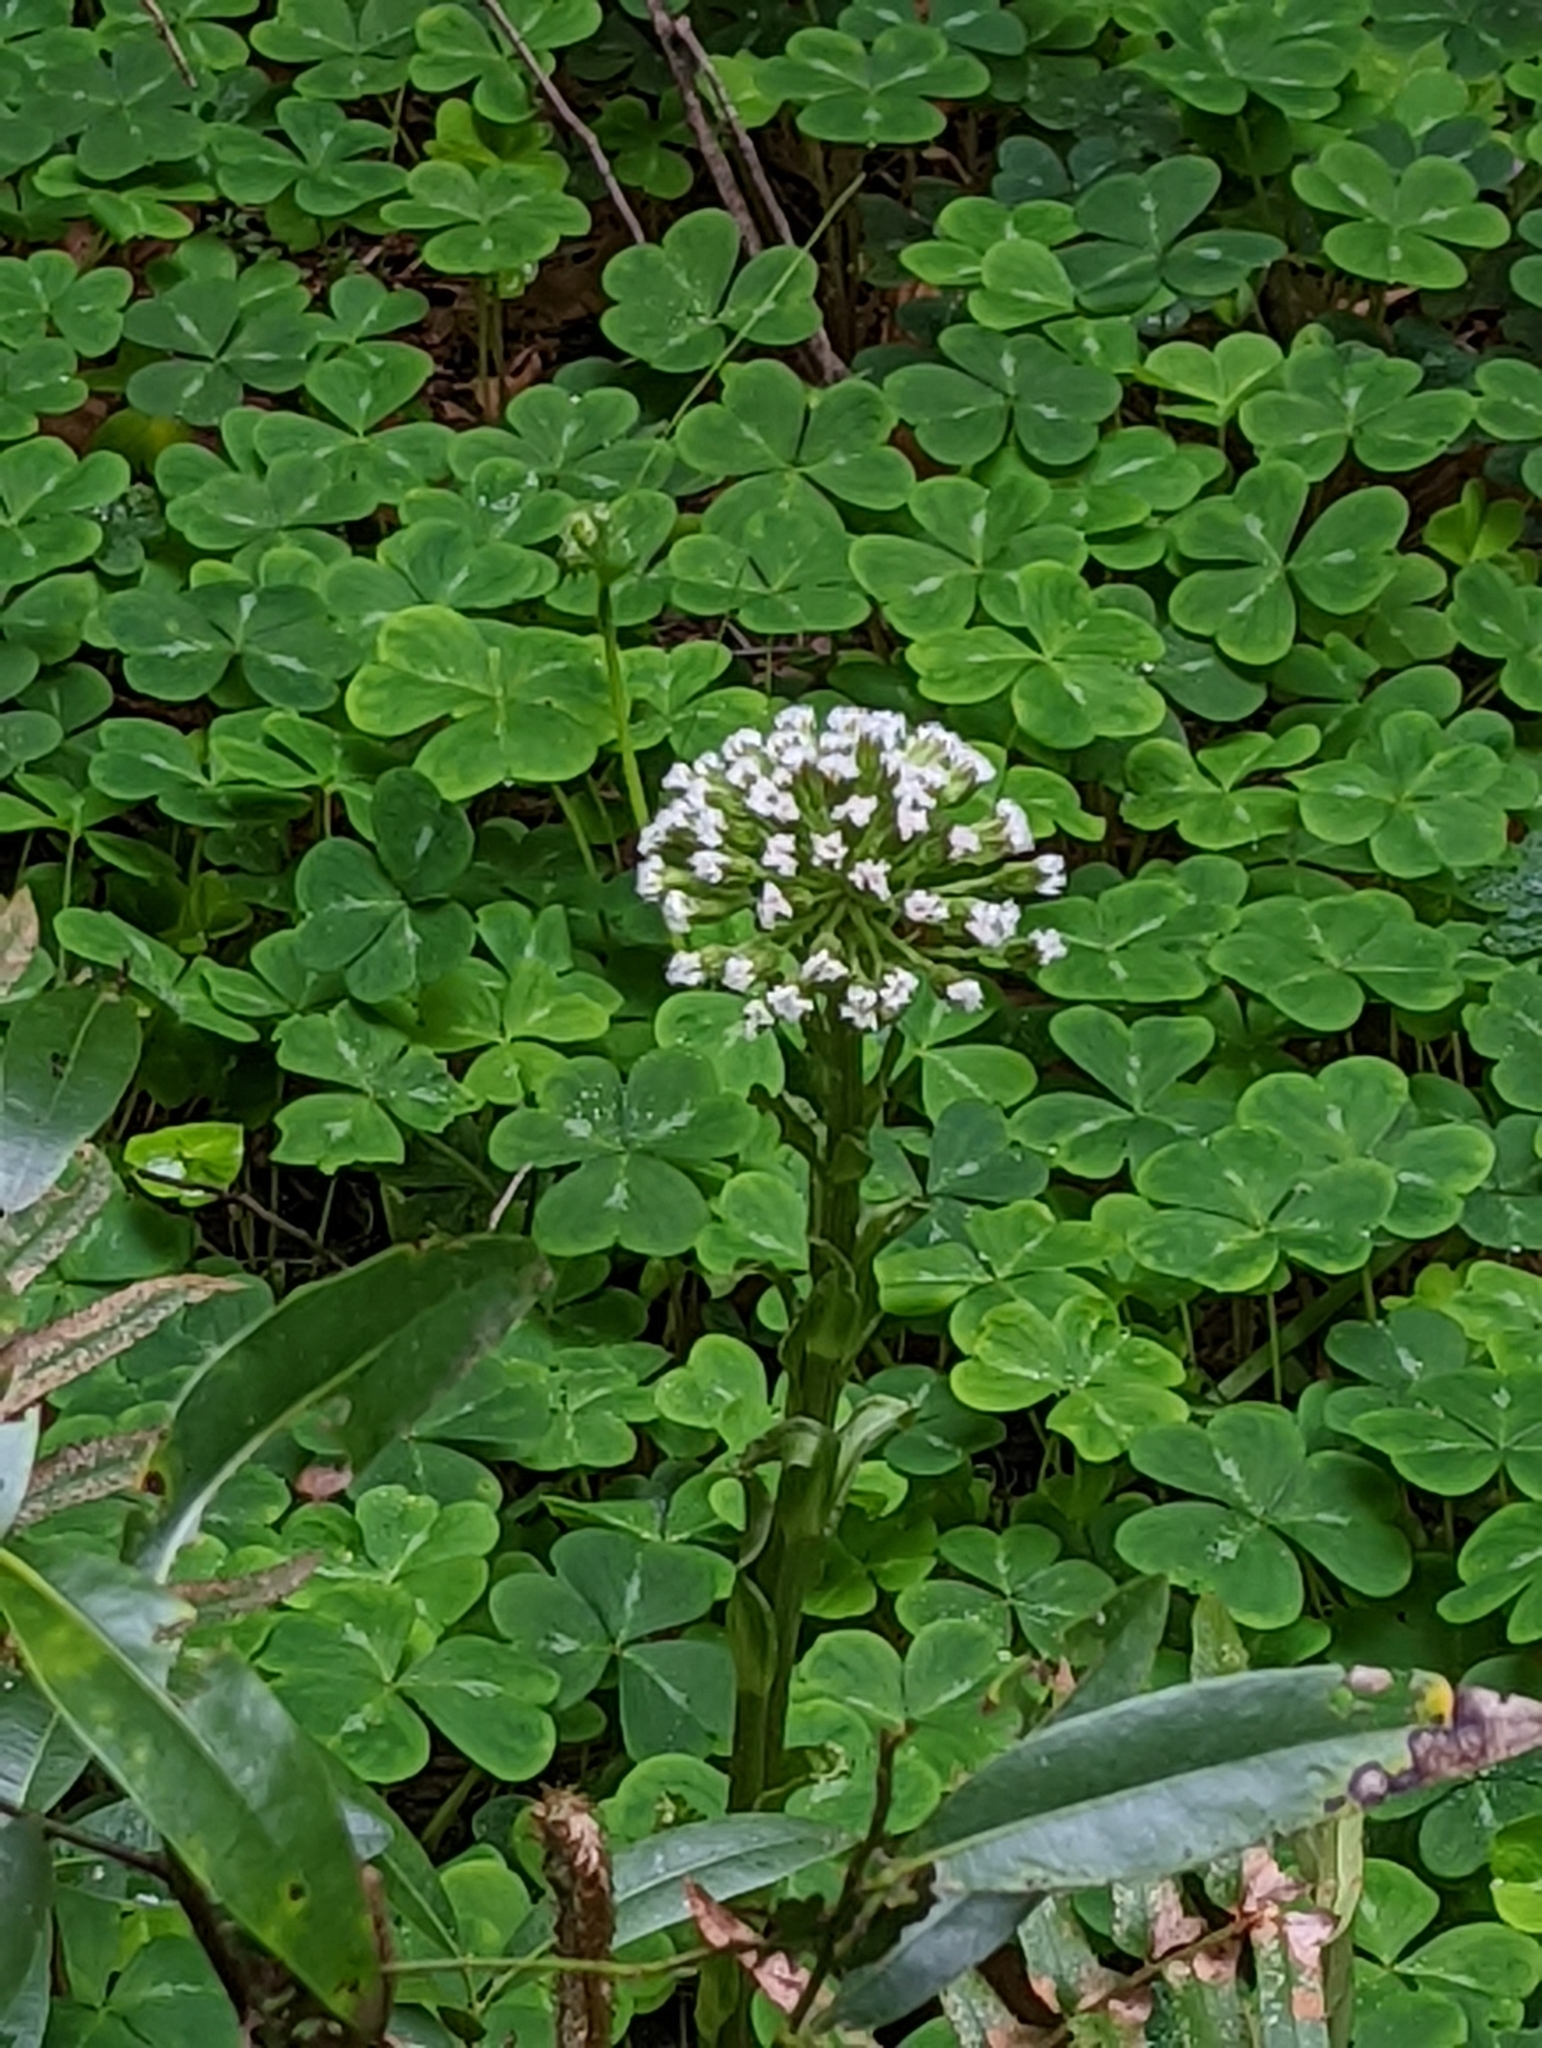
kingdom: Plantae
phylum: Tracheophyta
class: Magnoliopsida
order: Asterales
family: Asteraceae
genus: Petasites
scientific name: Petasites frigidus
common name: Arctic butterbur
